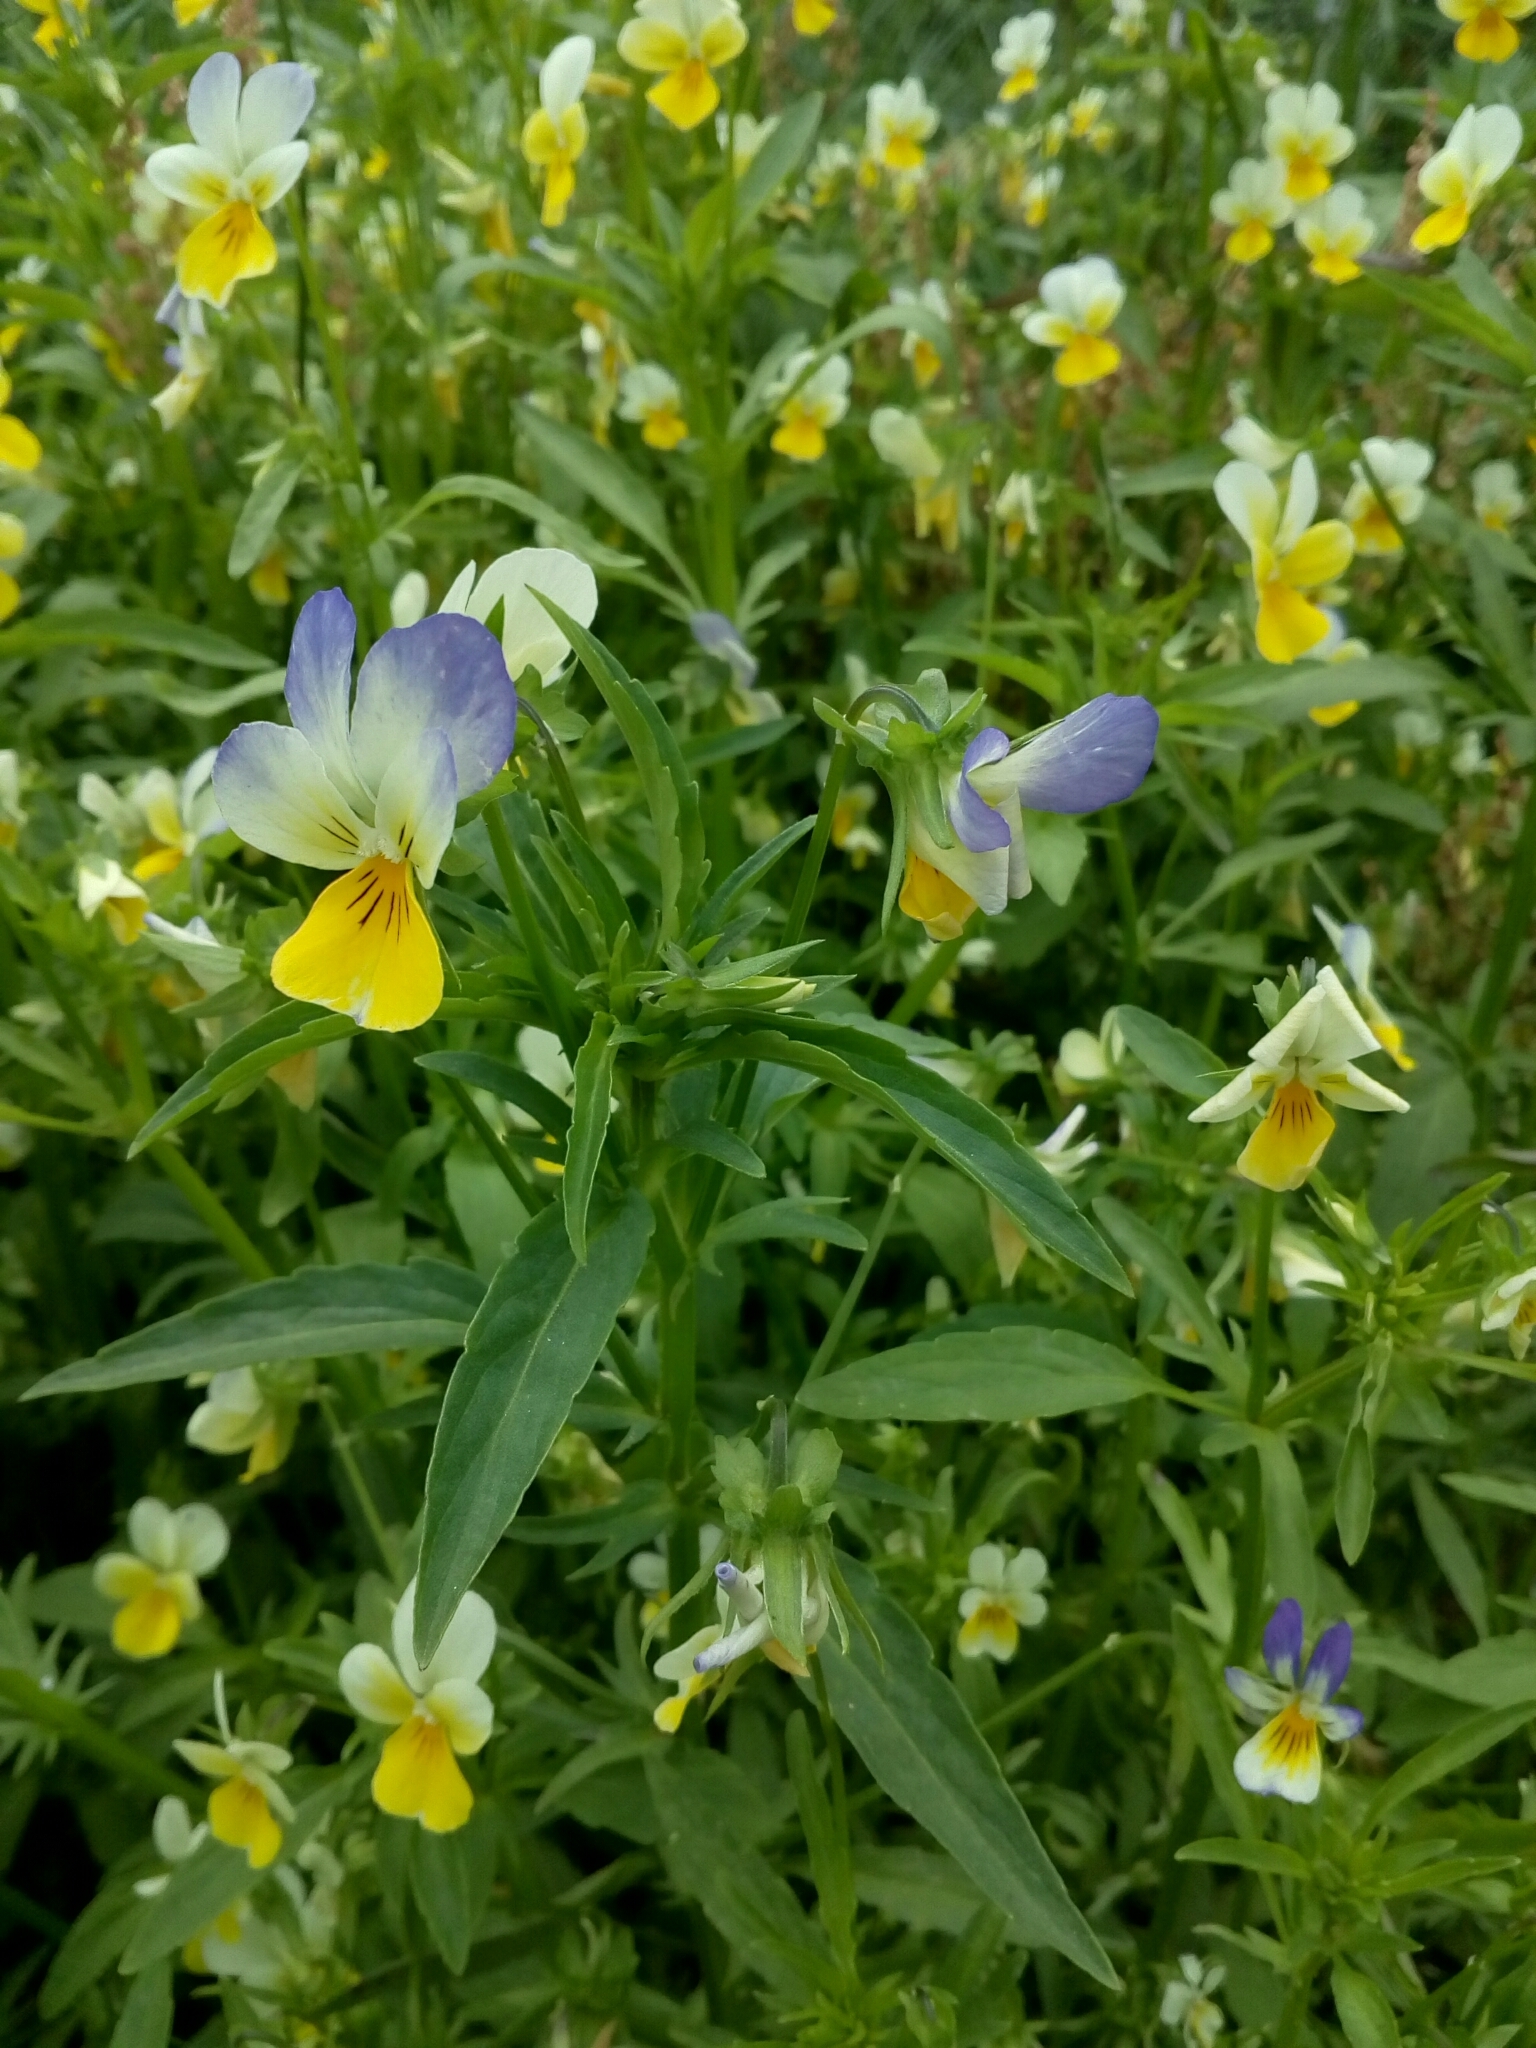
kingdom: Plantae
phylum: Tracheophyta
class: Magnoliopsida
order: Malpighiales
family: Violaceae
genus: Viola
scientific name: Viola tricolor
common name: Pansy
